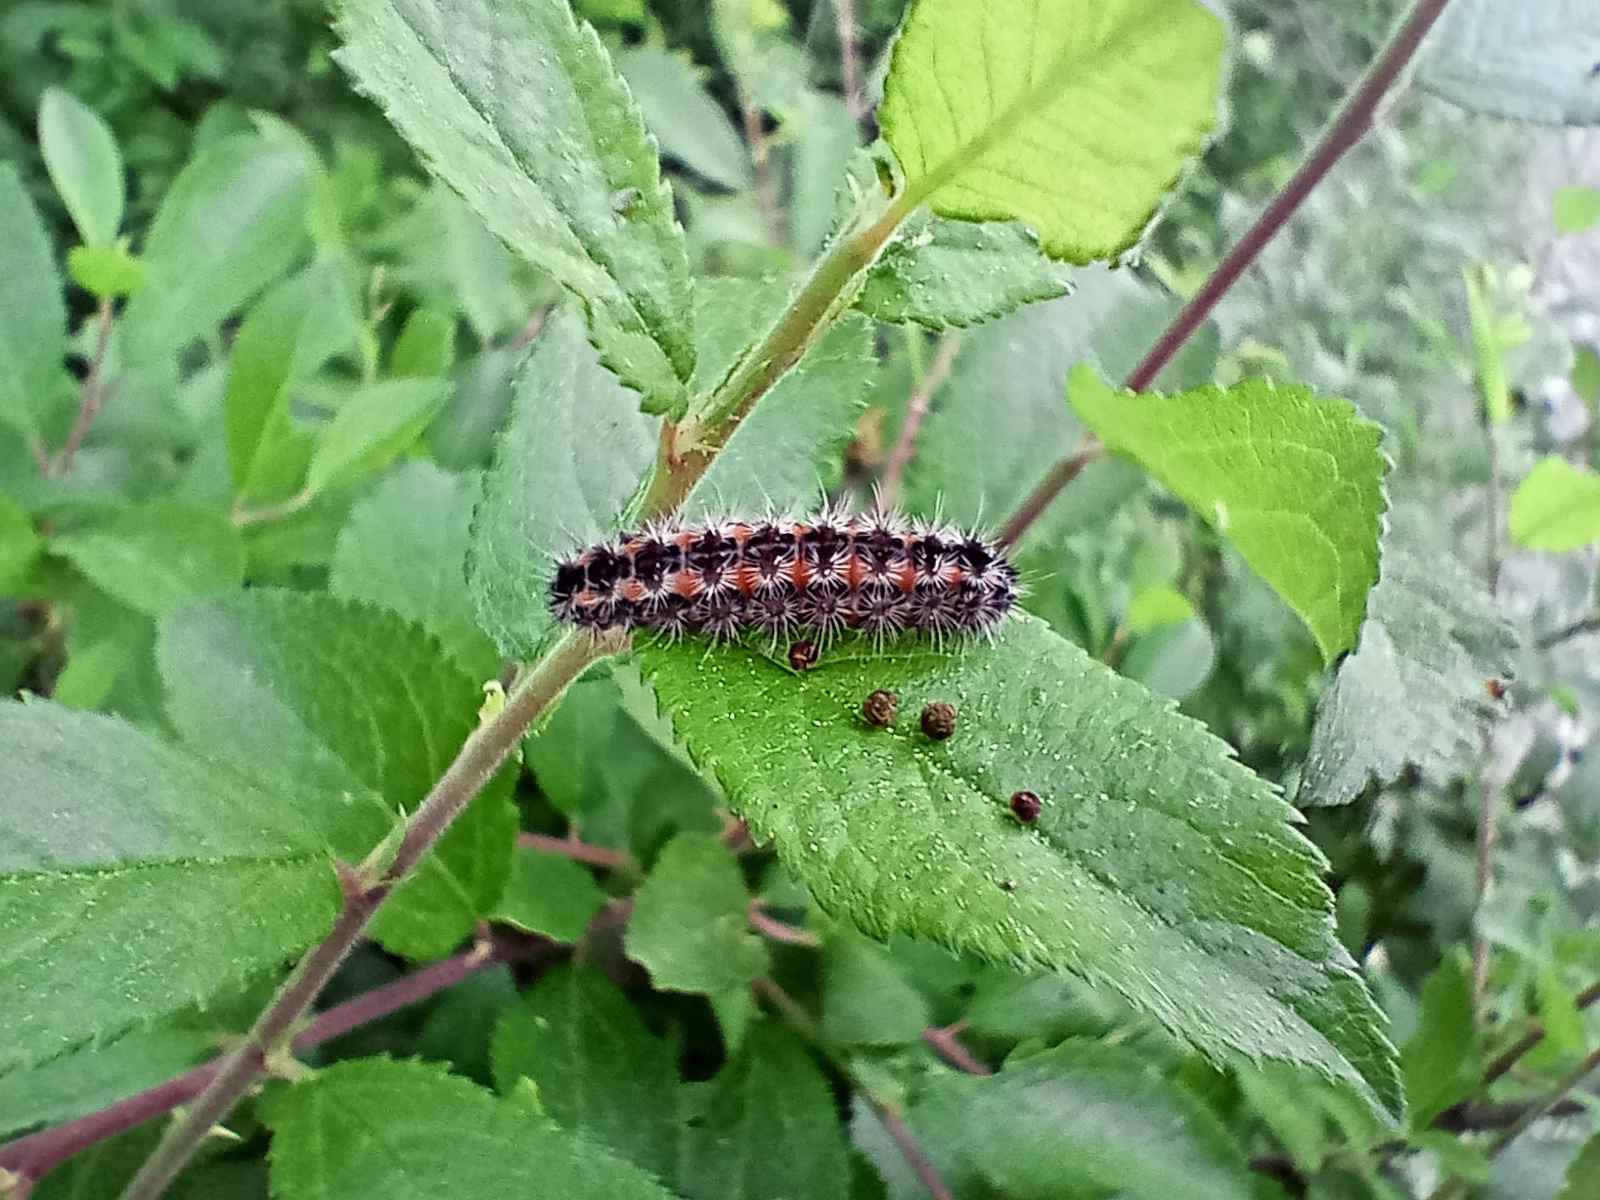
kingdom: Animalia
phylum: Arthropoda
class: Insecta
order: Lepidoptera
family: Zygaenidae
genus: Rhagades
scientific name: Rhagades pruni
